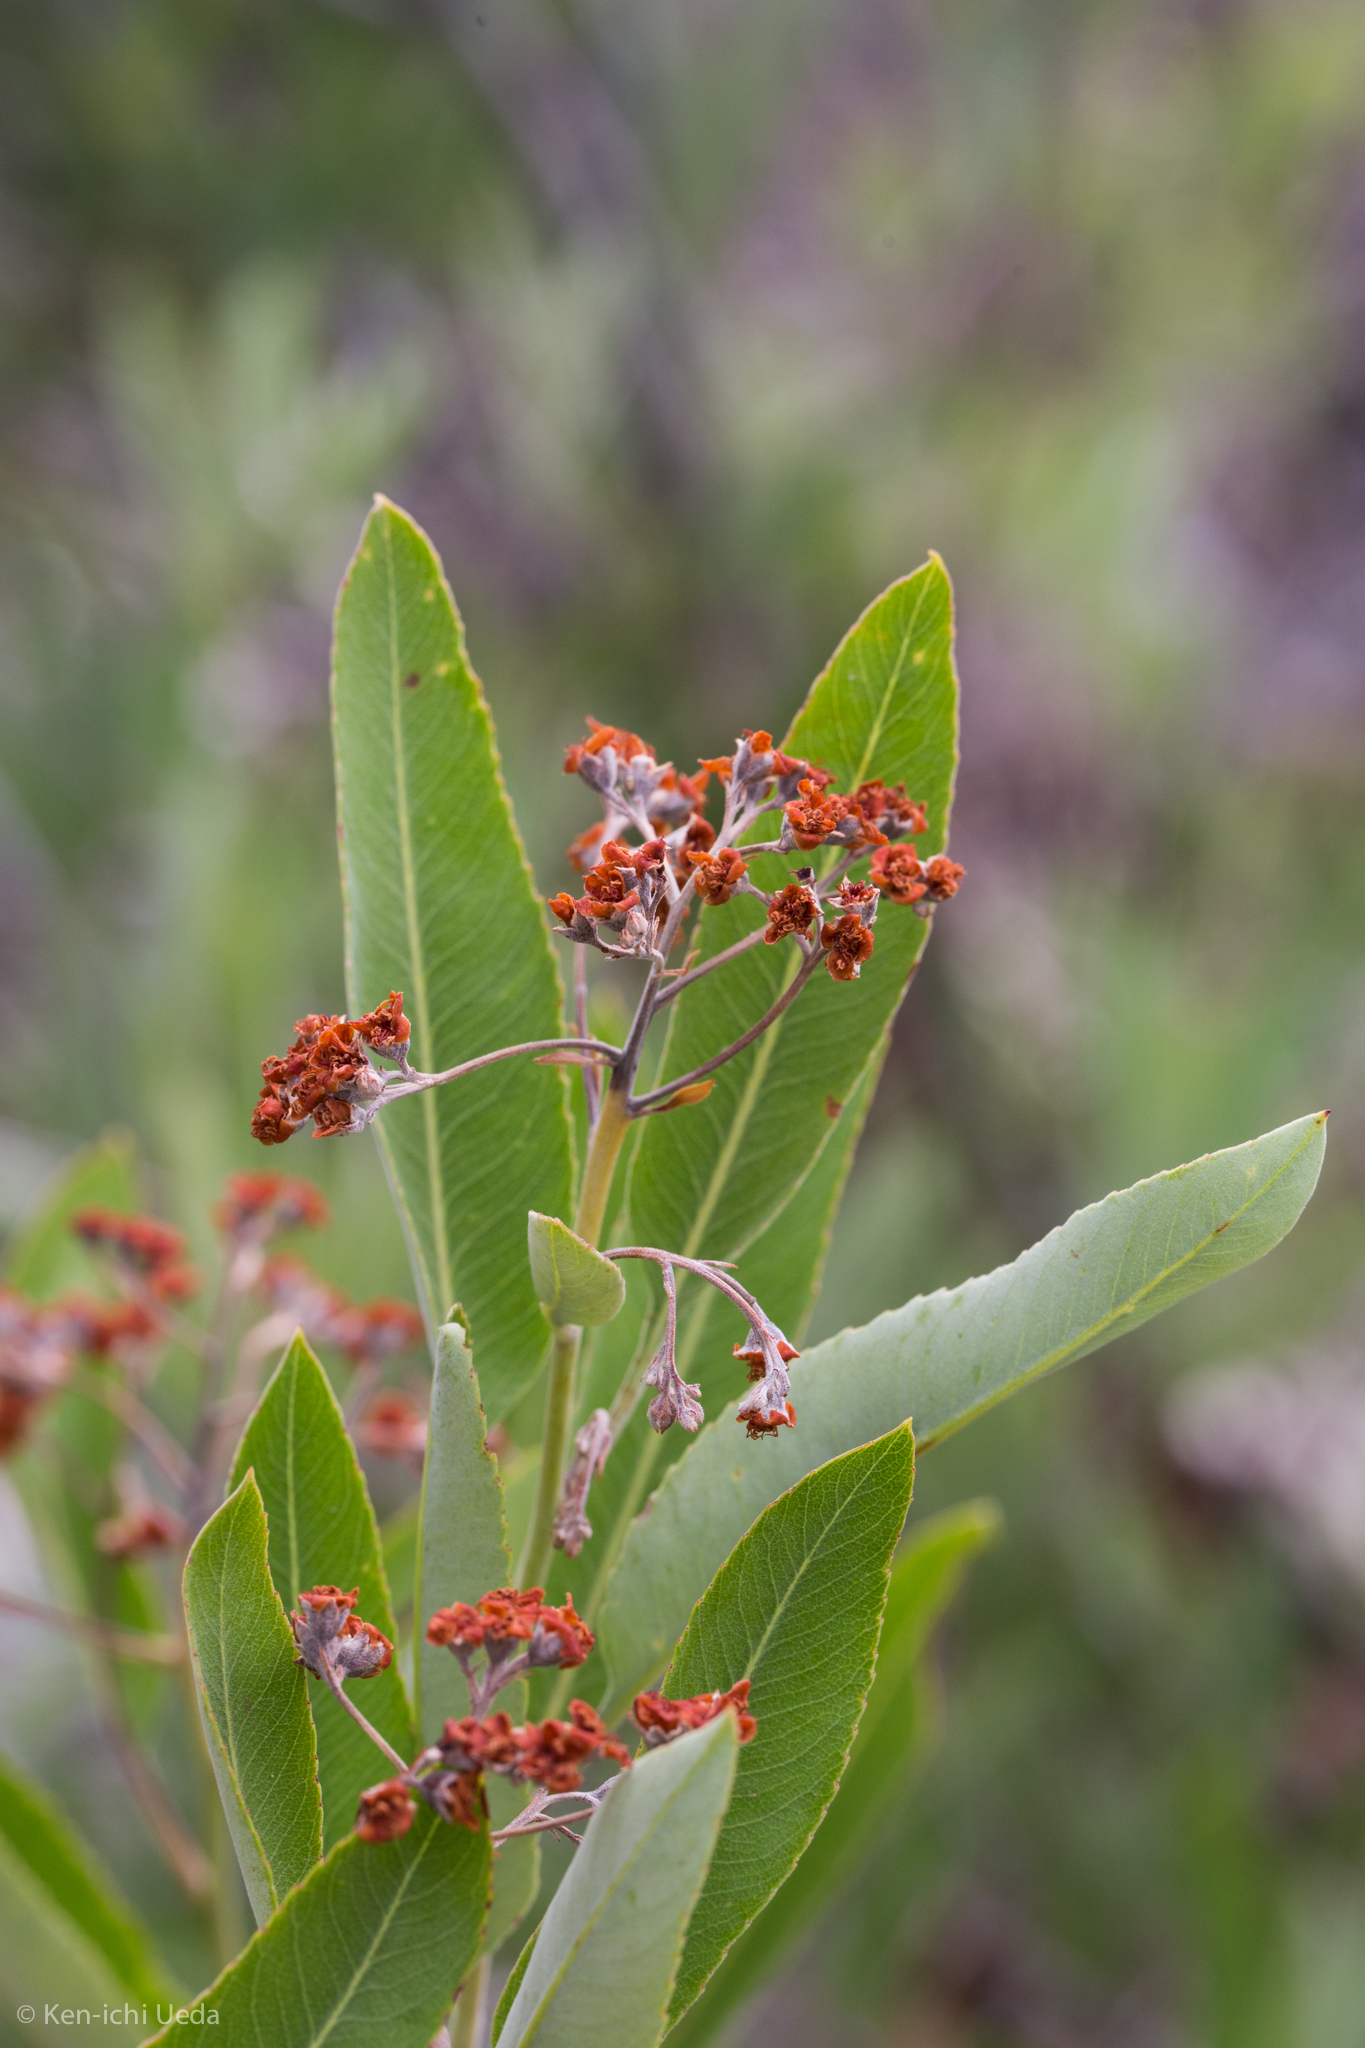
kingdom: Plantae
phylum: Tracheophyta
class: Magnoliopsida
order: Rosales
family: Rosaceae
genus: Vauquelinia
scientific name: Vauquelinia californica
